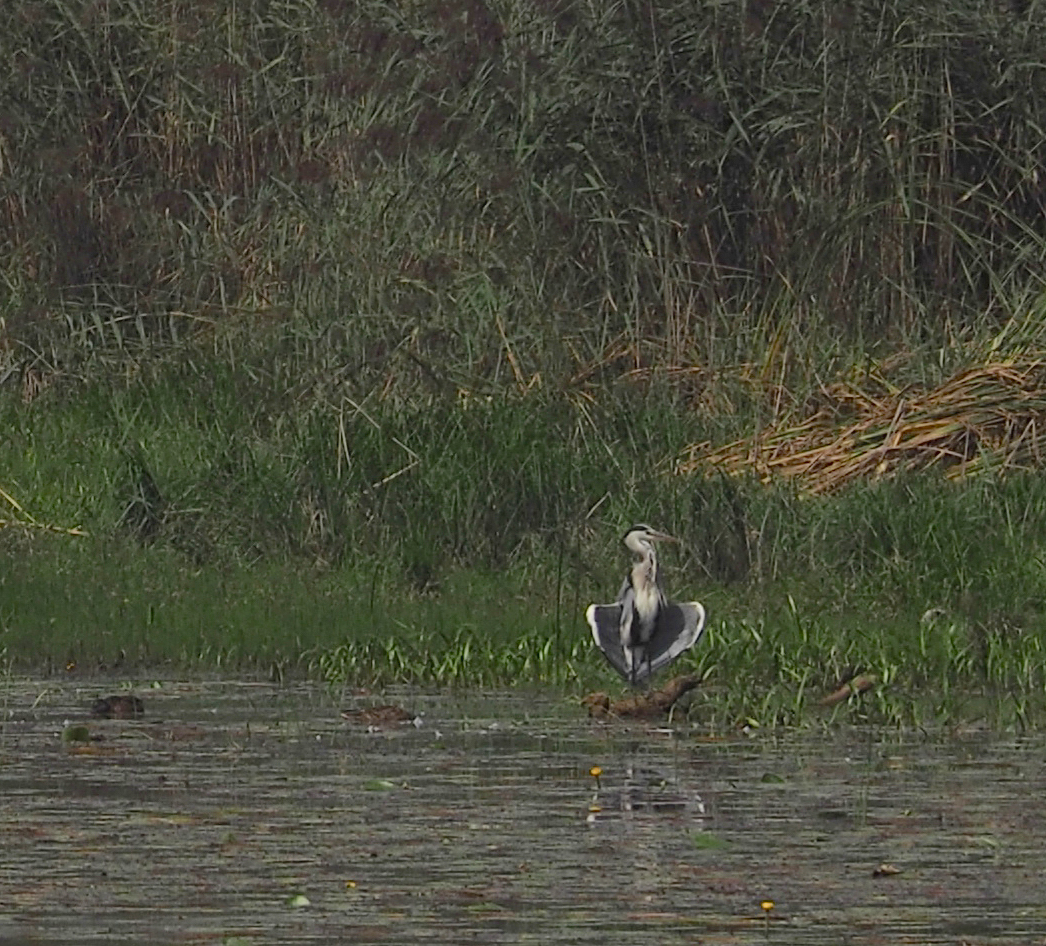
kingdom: Animalia
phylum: Chordata
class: Aves
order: Pelecaniformes
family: Ardeidae
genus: Ardea
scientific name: Ardea cinerea
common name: Grey heron
